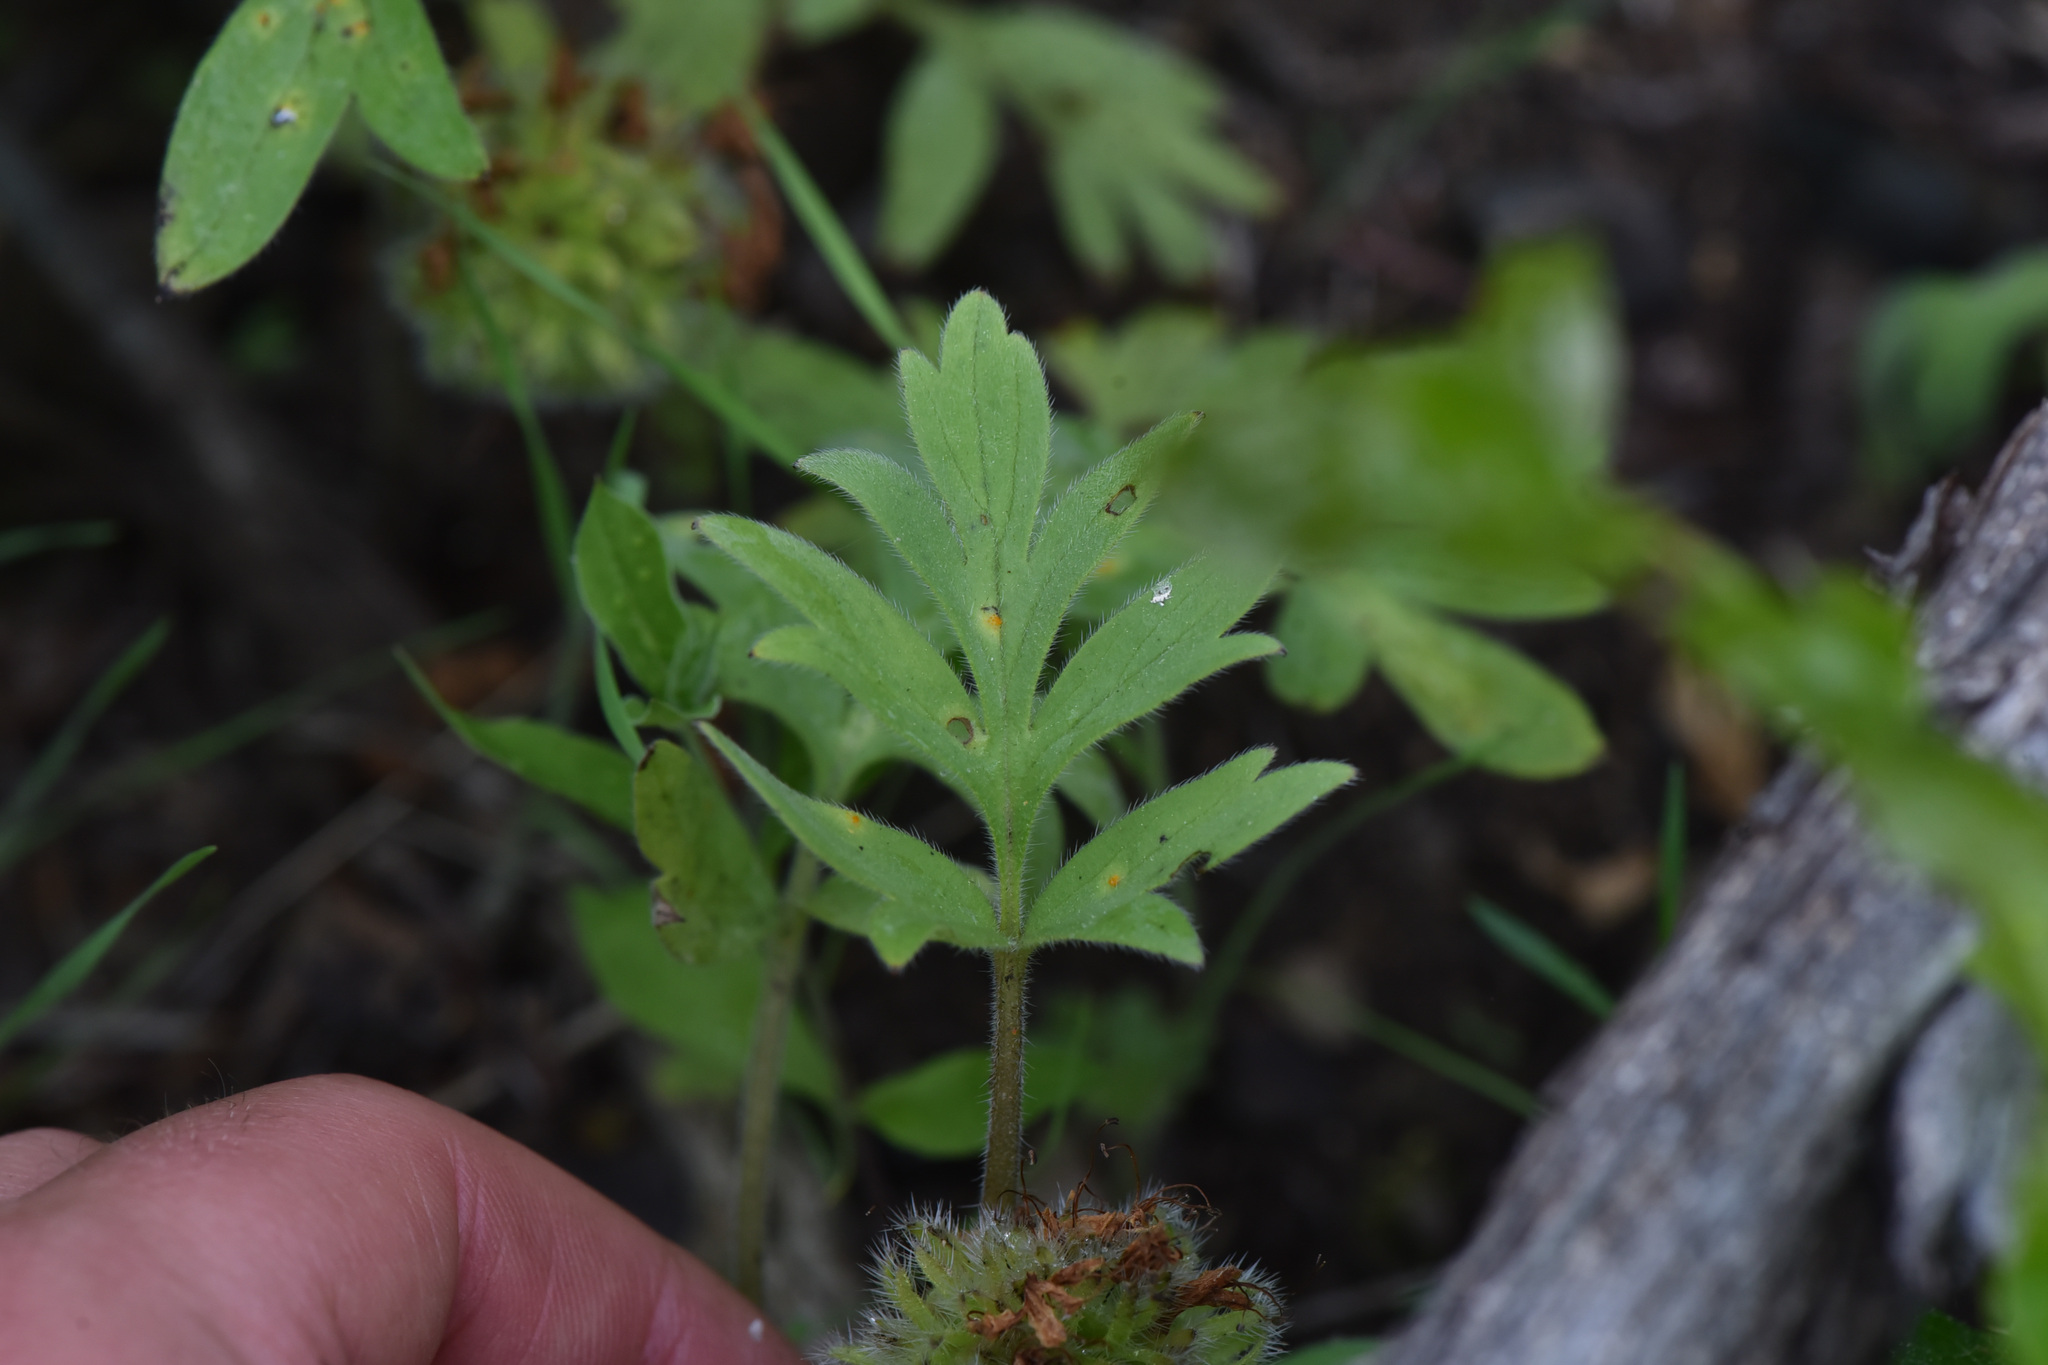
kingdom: Plantae
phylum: Tracheophyta
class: Magnoliopsida
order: Boraginales
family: Hydrophyllaceae
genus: Hydrophyllum
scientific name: Hydrophyllum capitatum
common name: Woollen-breeches
